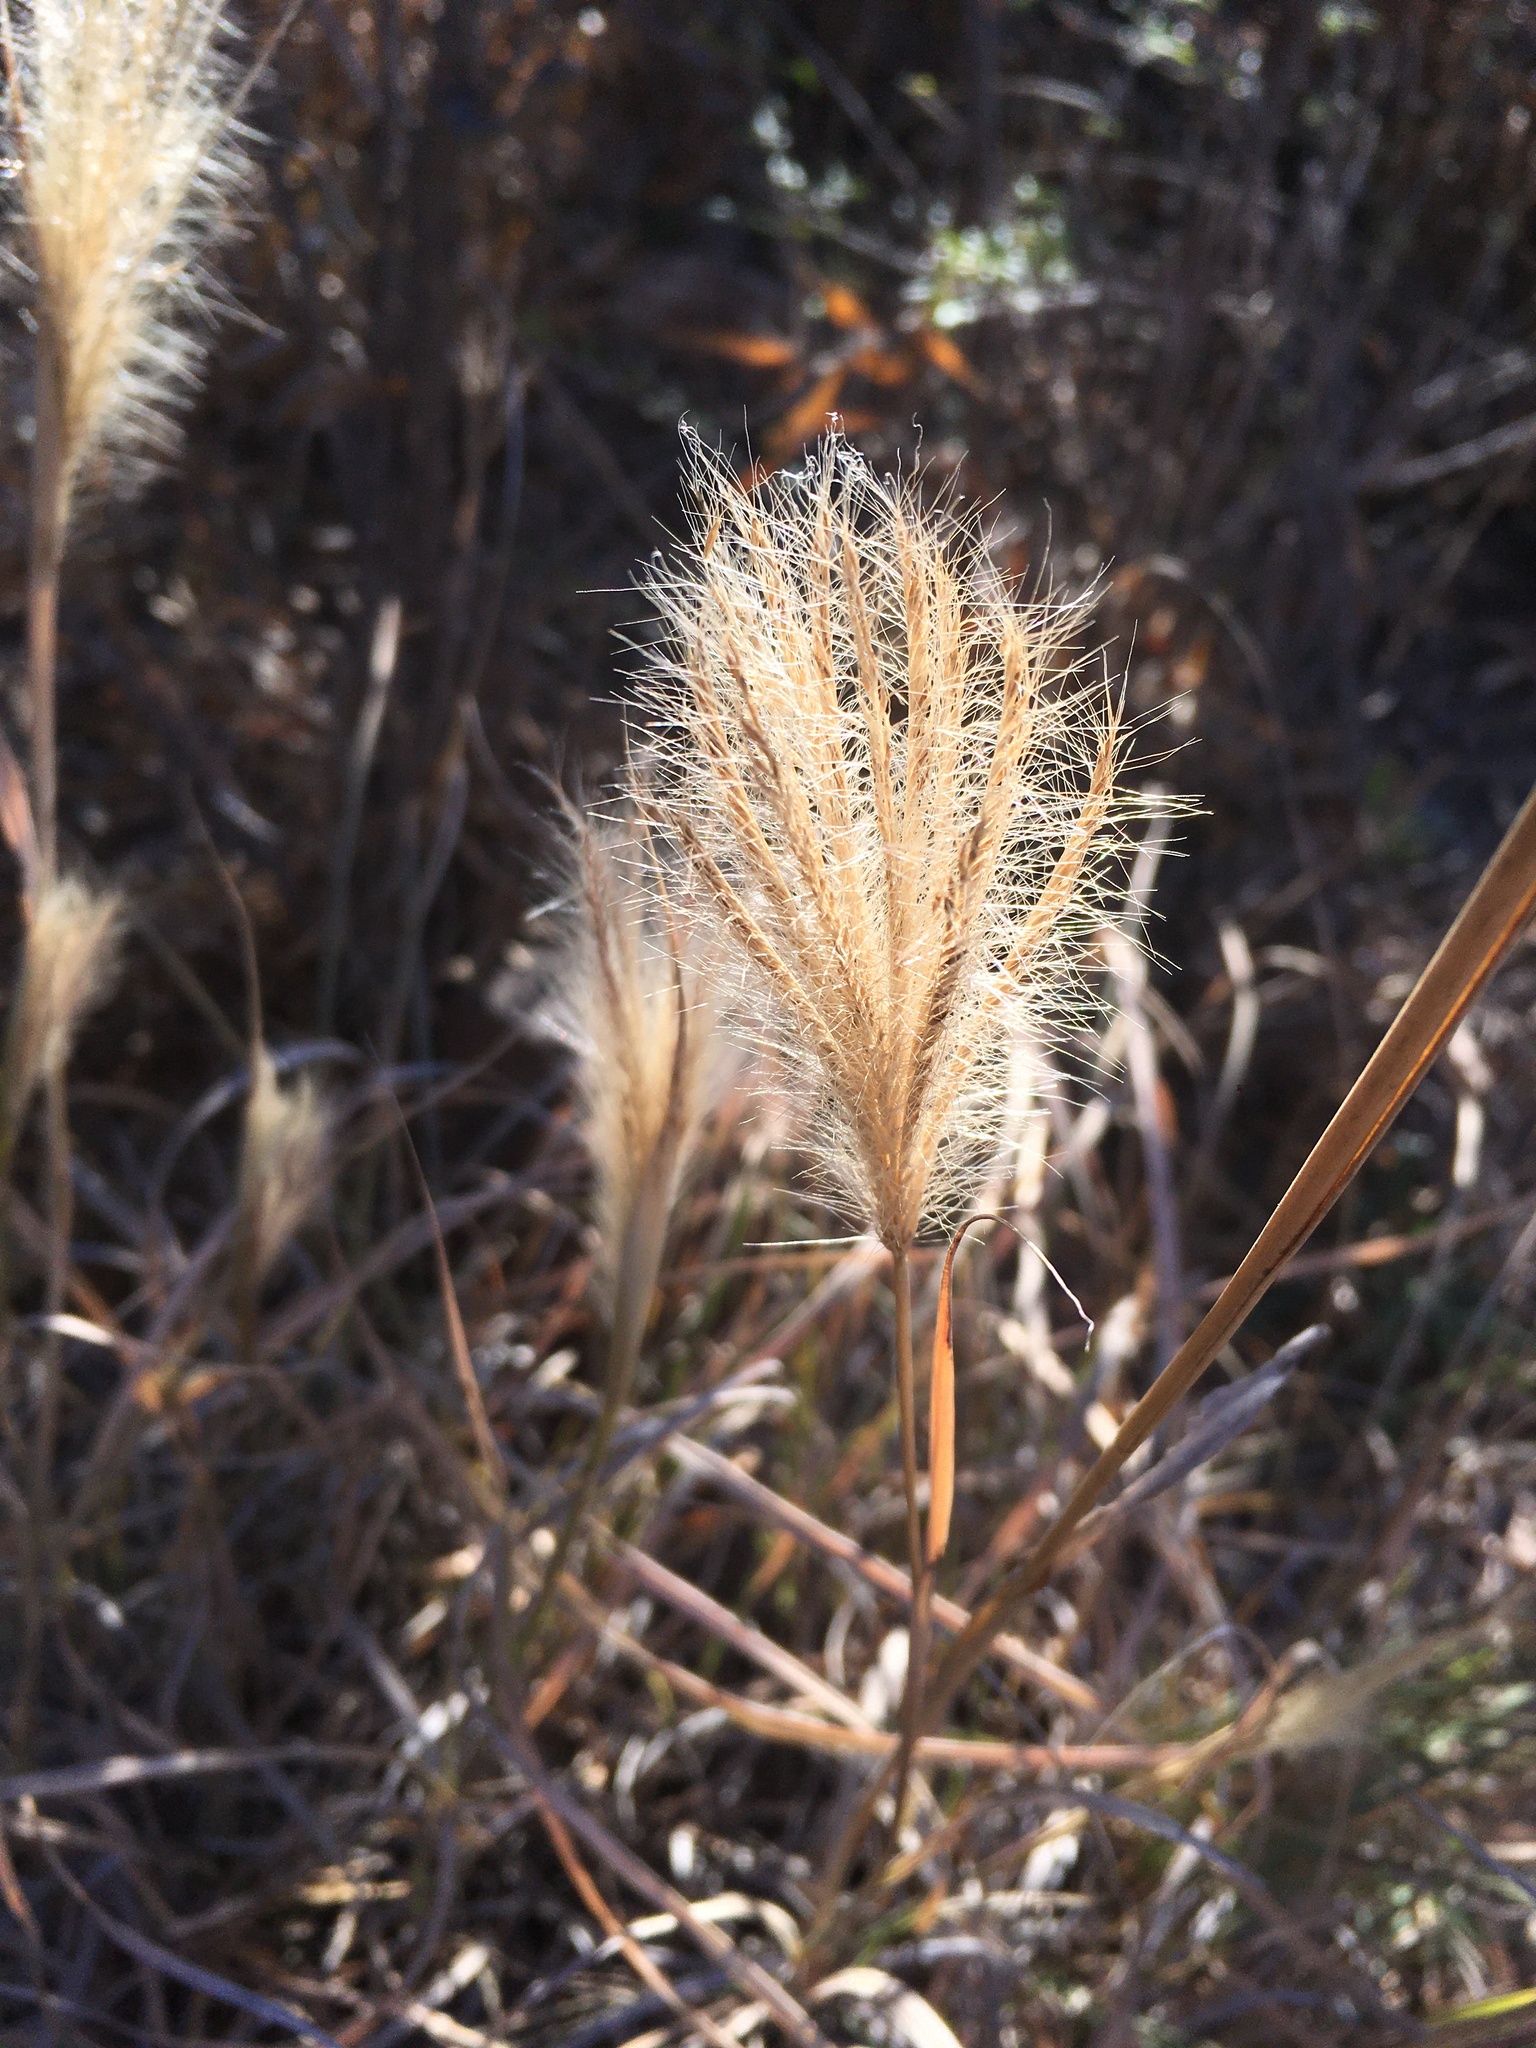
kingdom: Plantae
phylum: Tracheophyta
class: Liliopsida
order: Poales
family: Poaceae
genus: Leptochloa
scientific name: Leptochloa crinita
